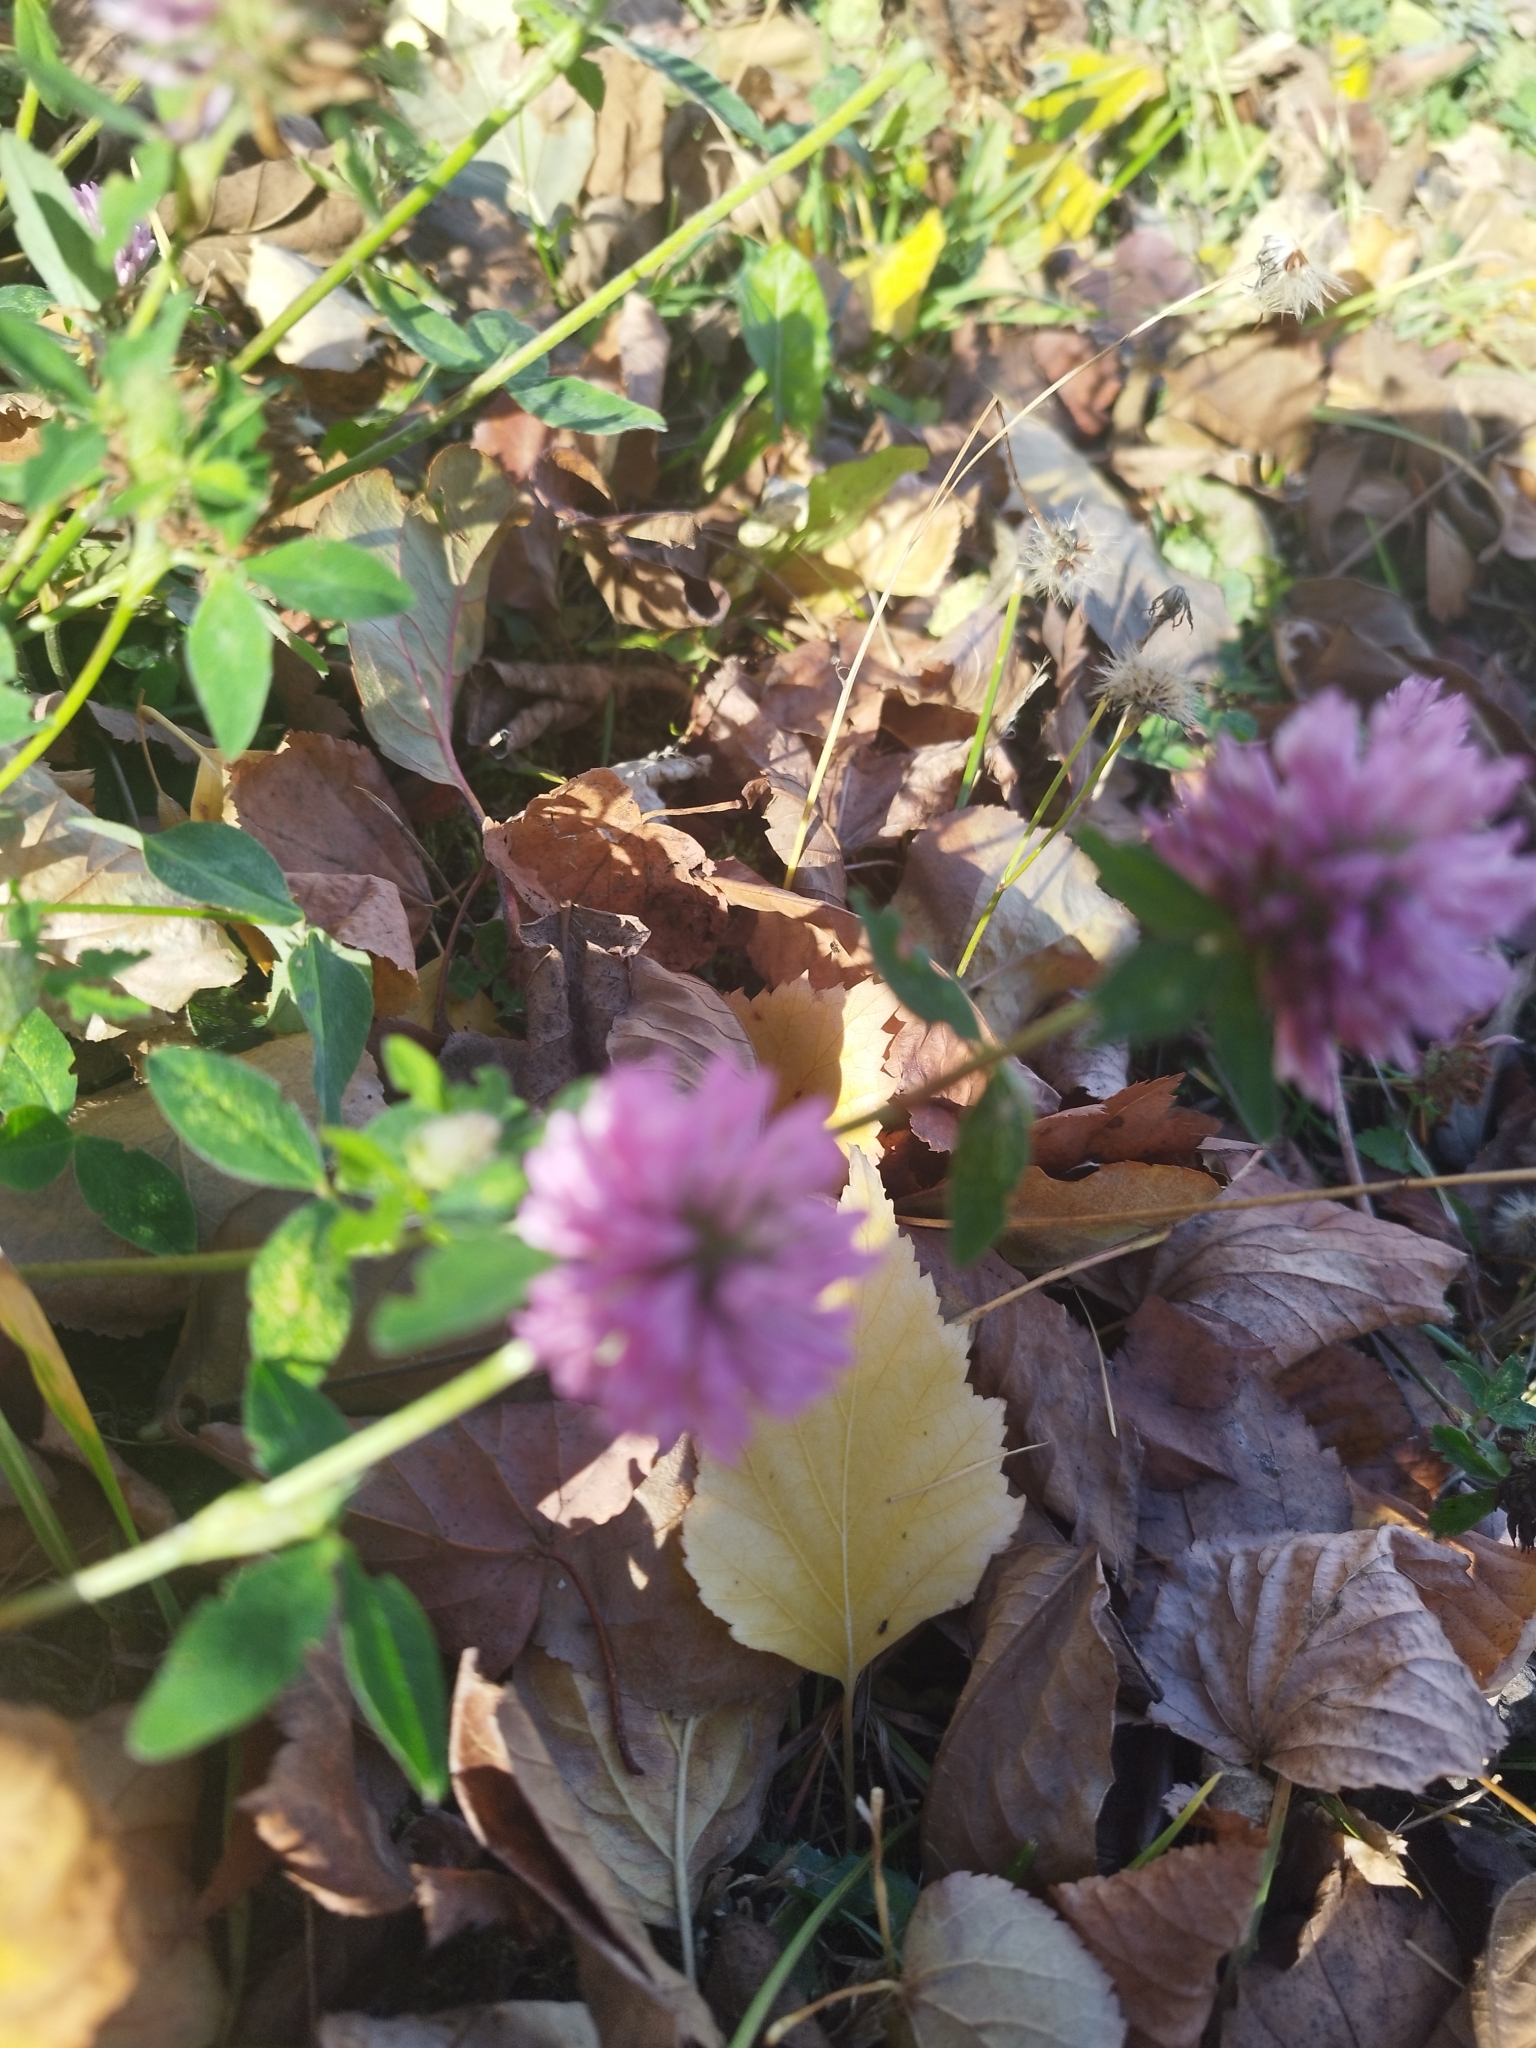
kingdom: Plantae
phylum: Tracheophyta
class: Magnoliopsida
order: Fabales
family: Fabaceae
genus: Trifolium
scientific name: Trifolium pratense
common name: Red clover
